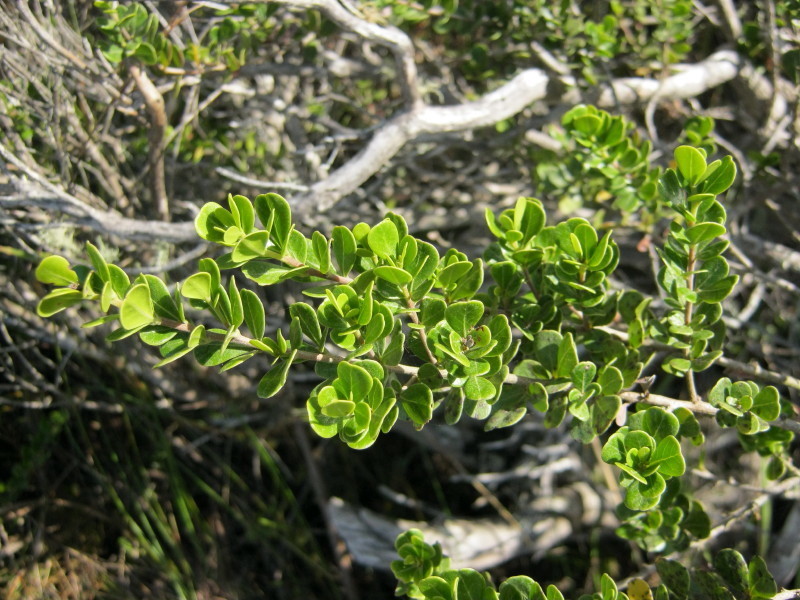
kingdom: Plantae
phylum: Tracheophyta
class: Magnoliopsida
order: Sapindales
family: Anacardiaceae
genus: Searsia
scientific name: Searsia lucida
